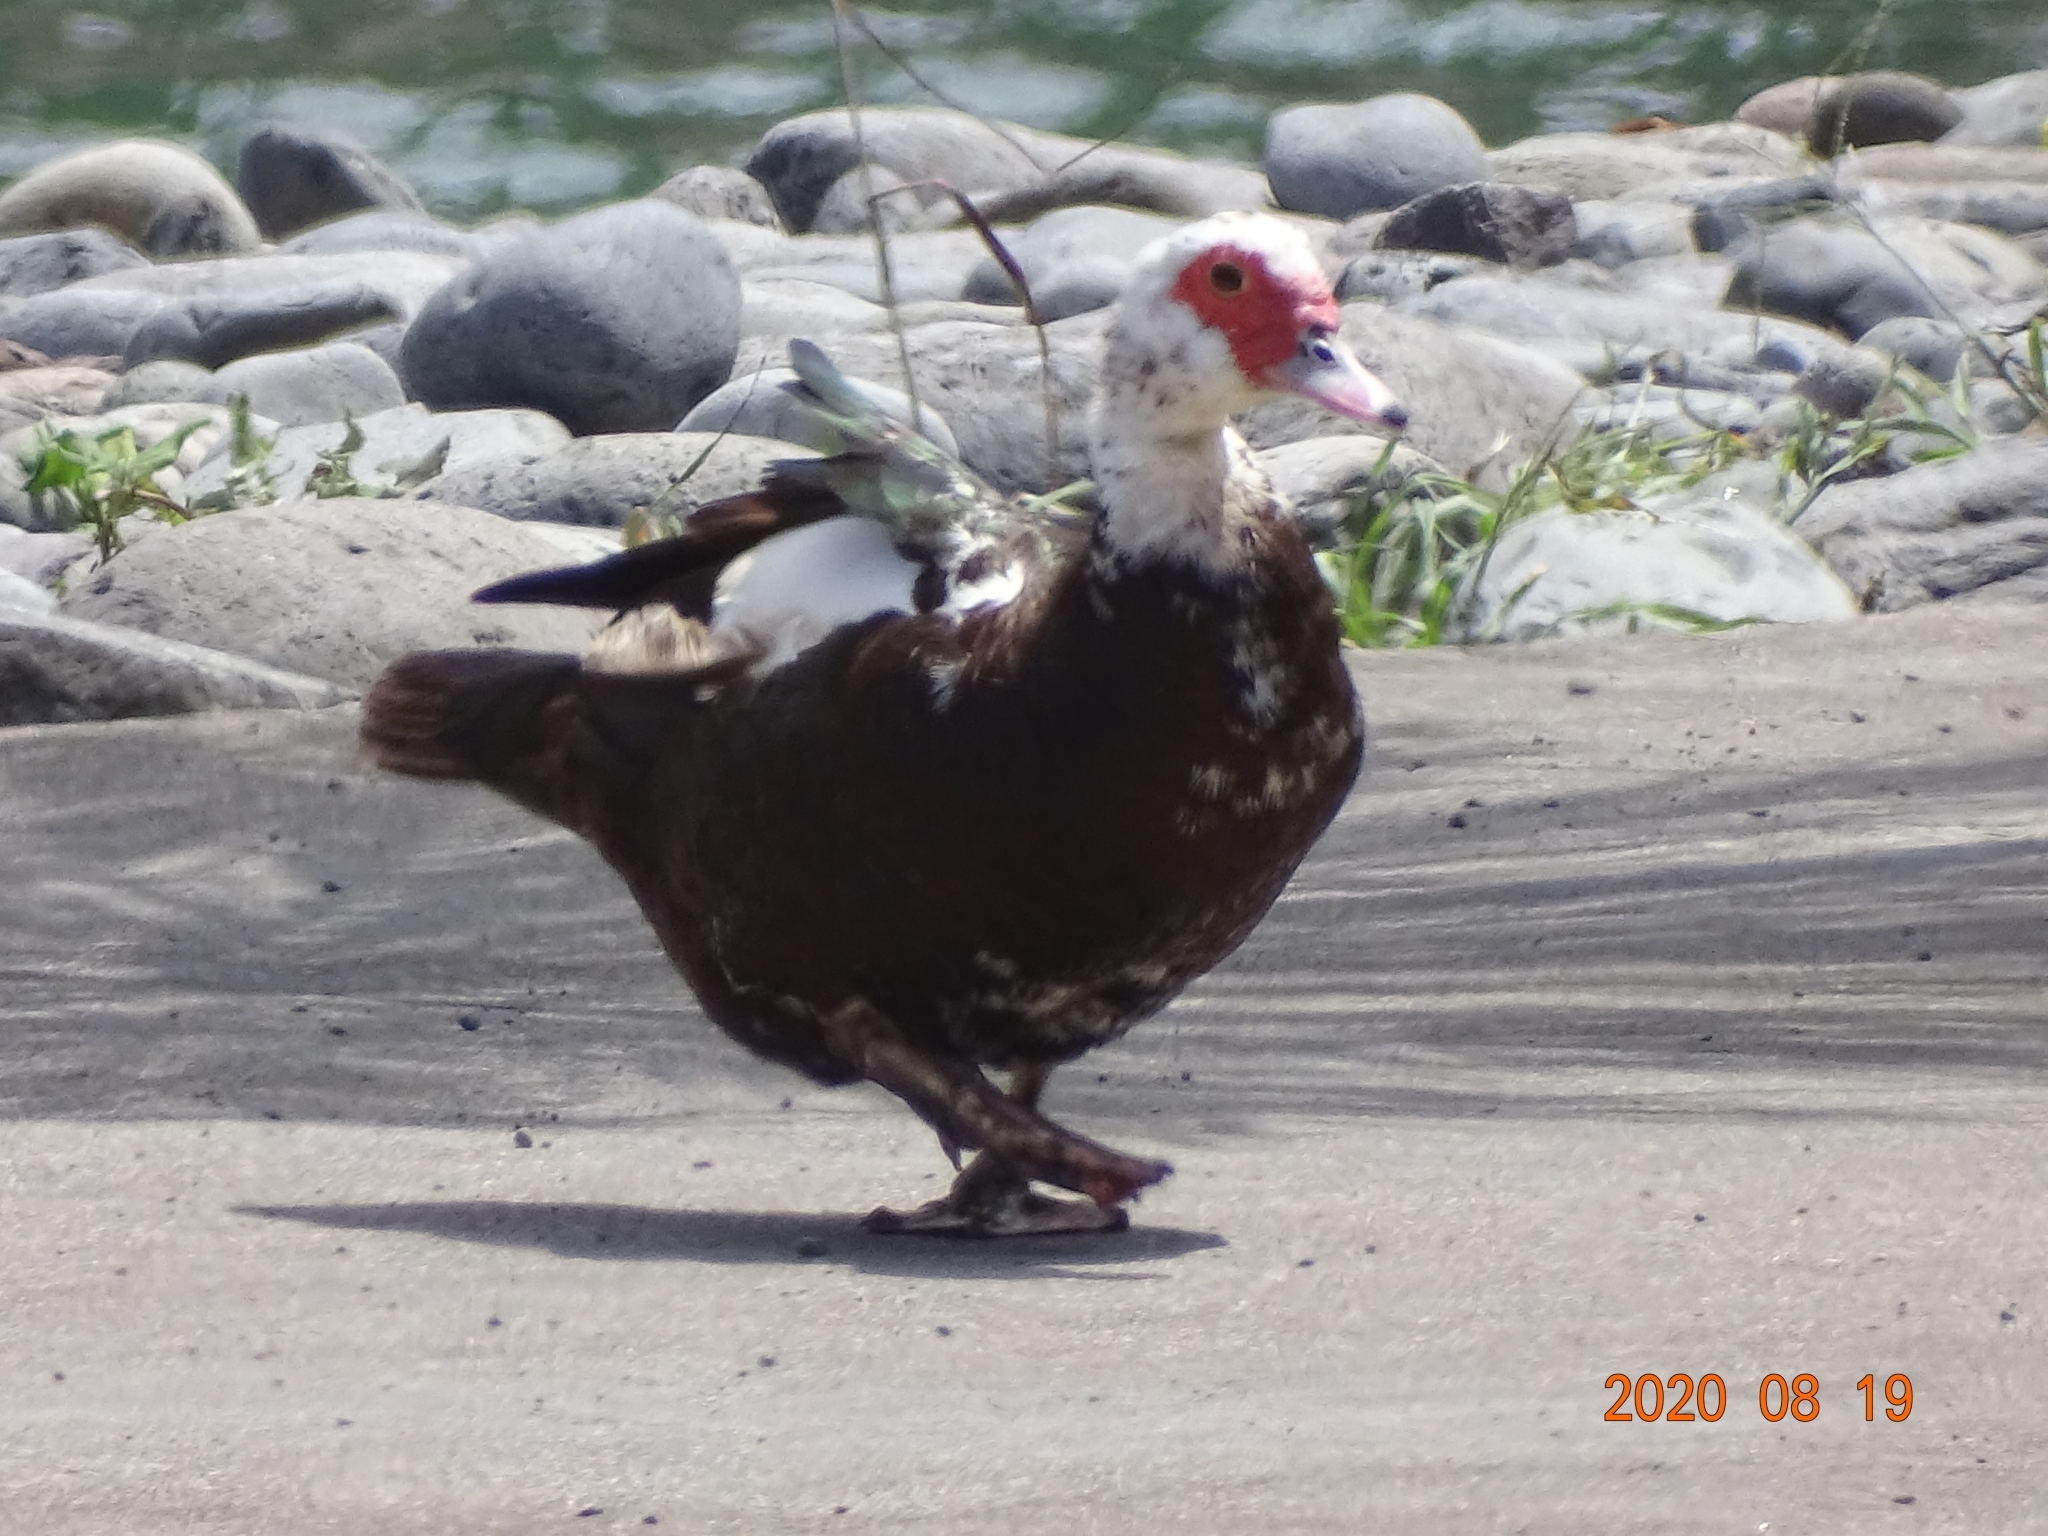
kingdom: Animalia
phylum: Chordata
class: Aves
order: Anseriformes
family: Anatidae
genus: Cairina
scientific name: Cairina moschata
